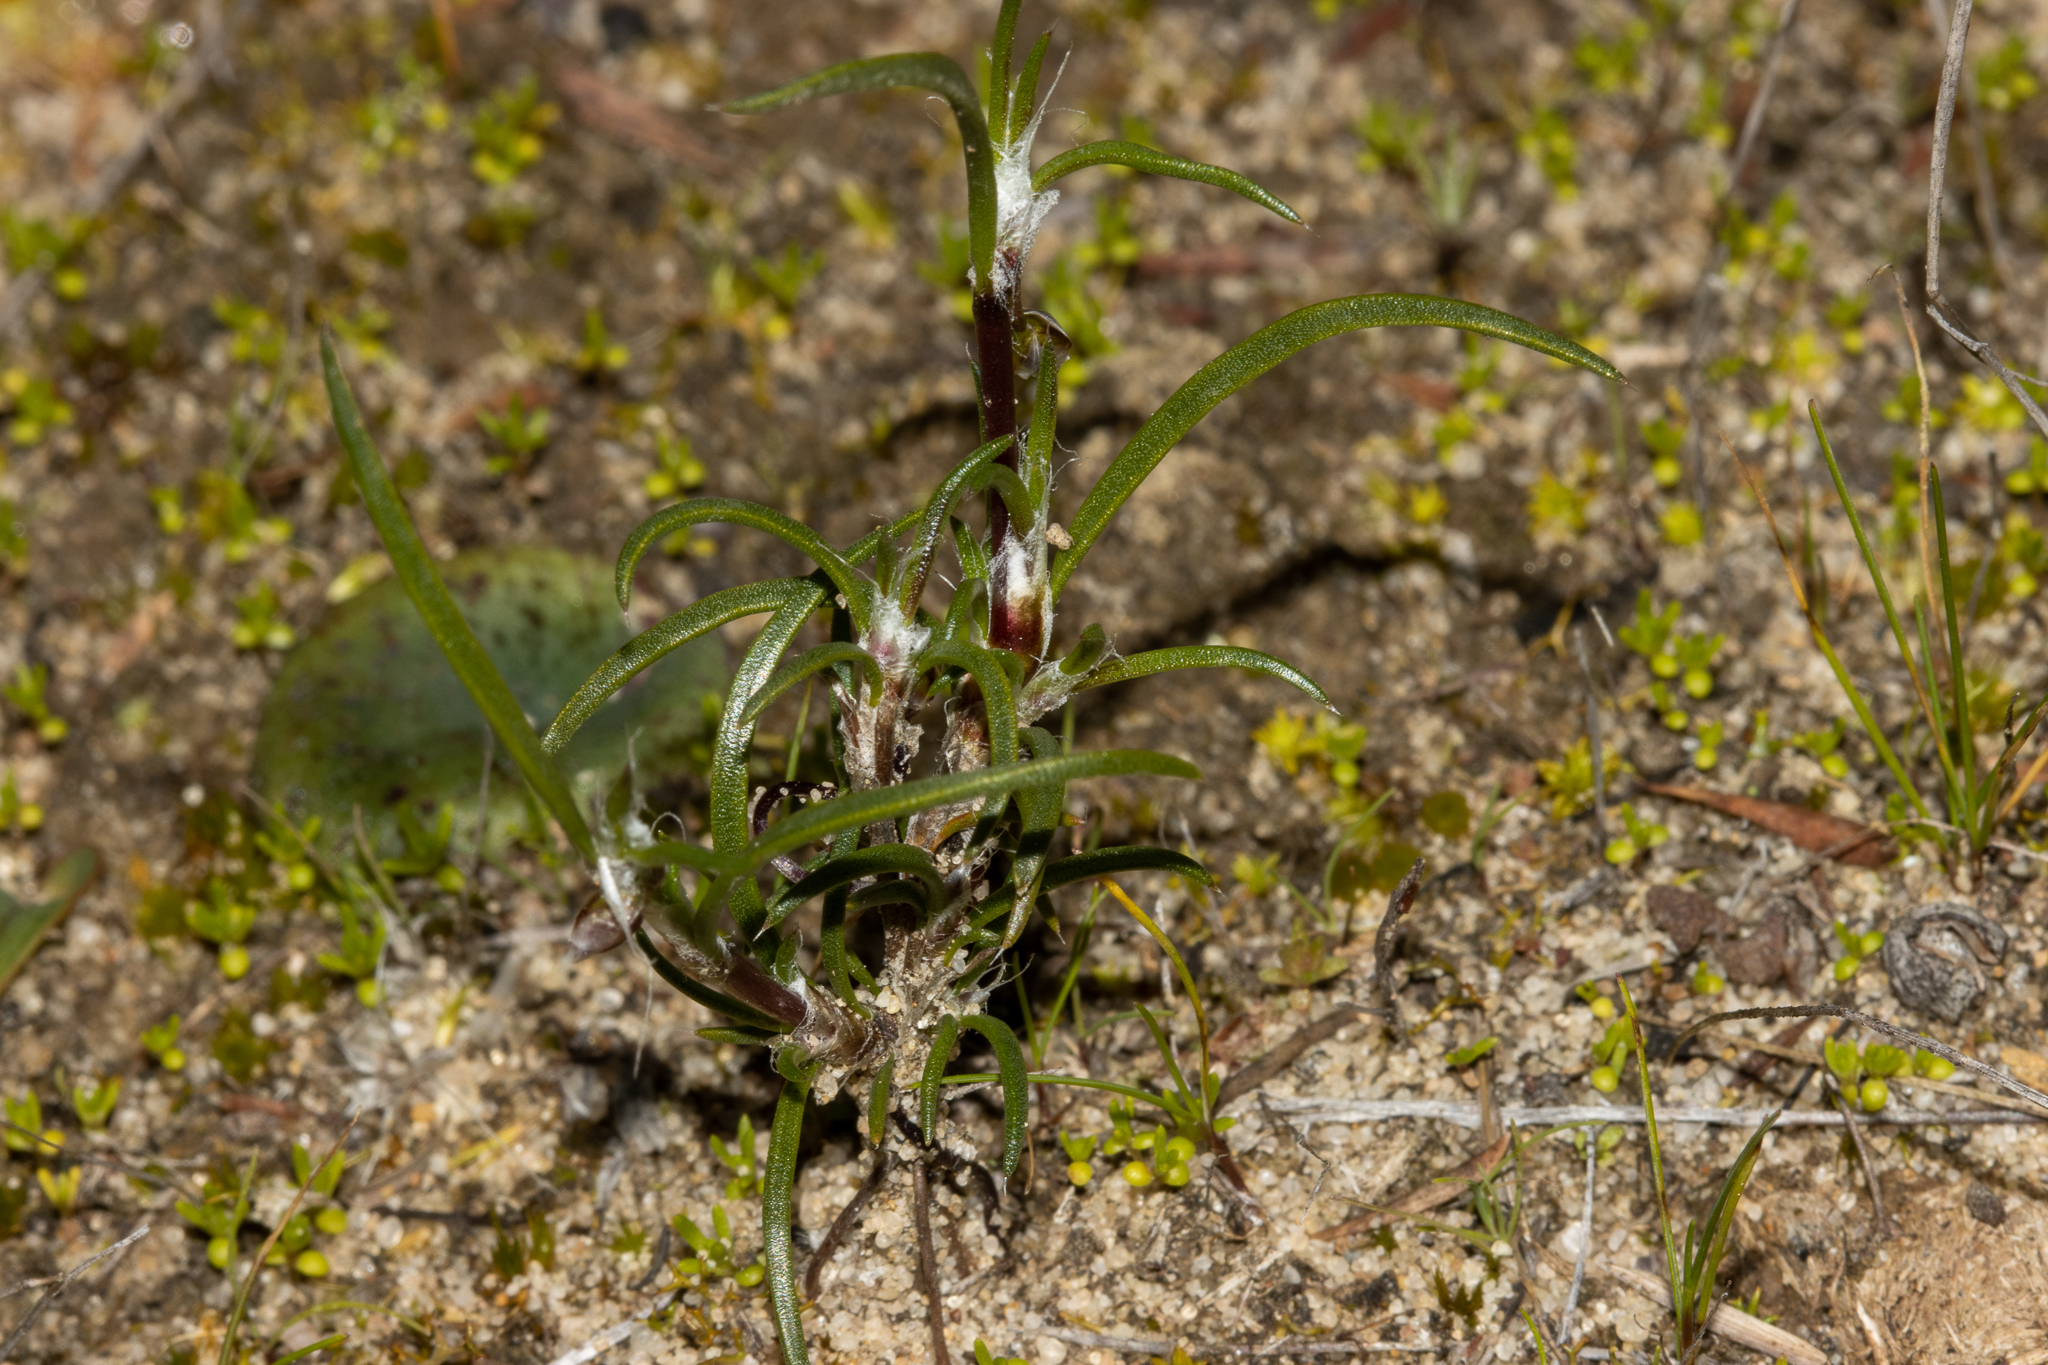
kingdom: Plantae
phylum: Tracheophyta
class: Liliopsida
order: Asparagales
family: Asparagaceae
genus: Laxmannia
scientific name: Laxmannia orientalis
